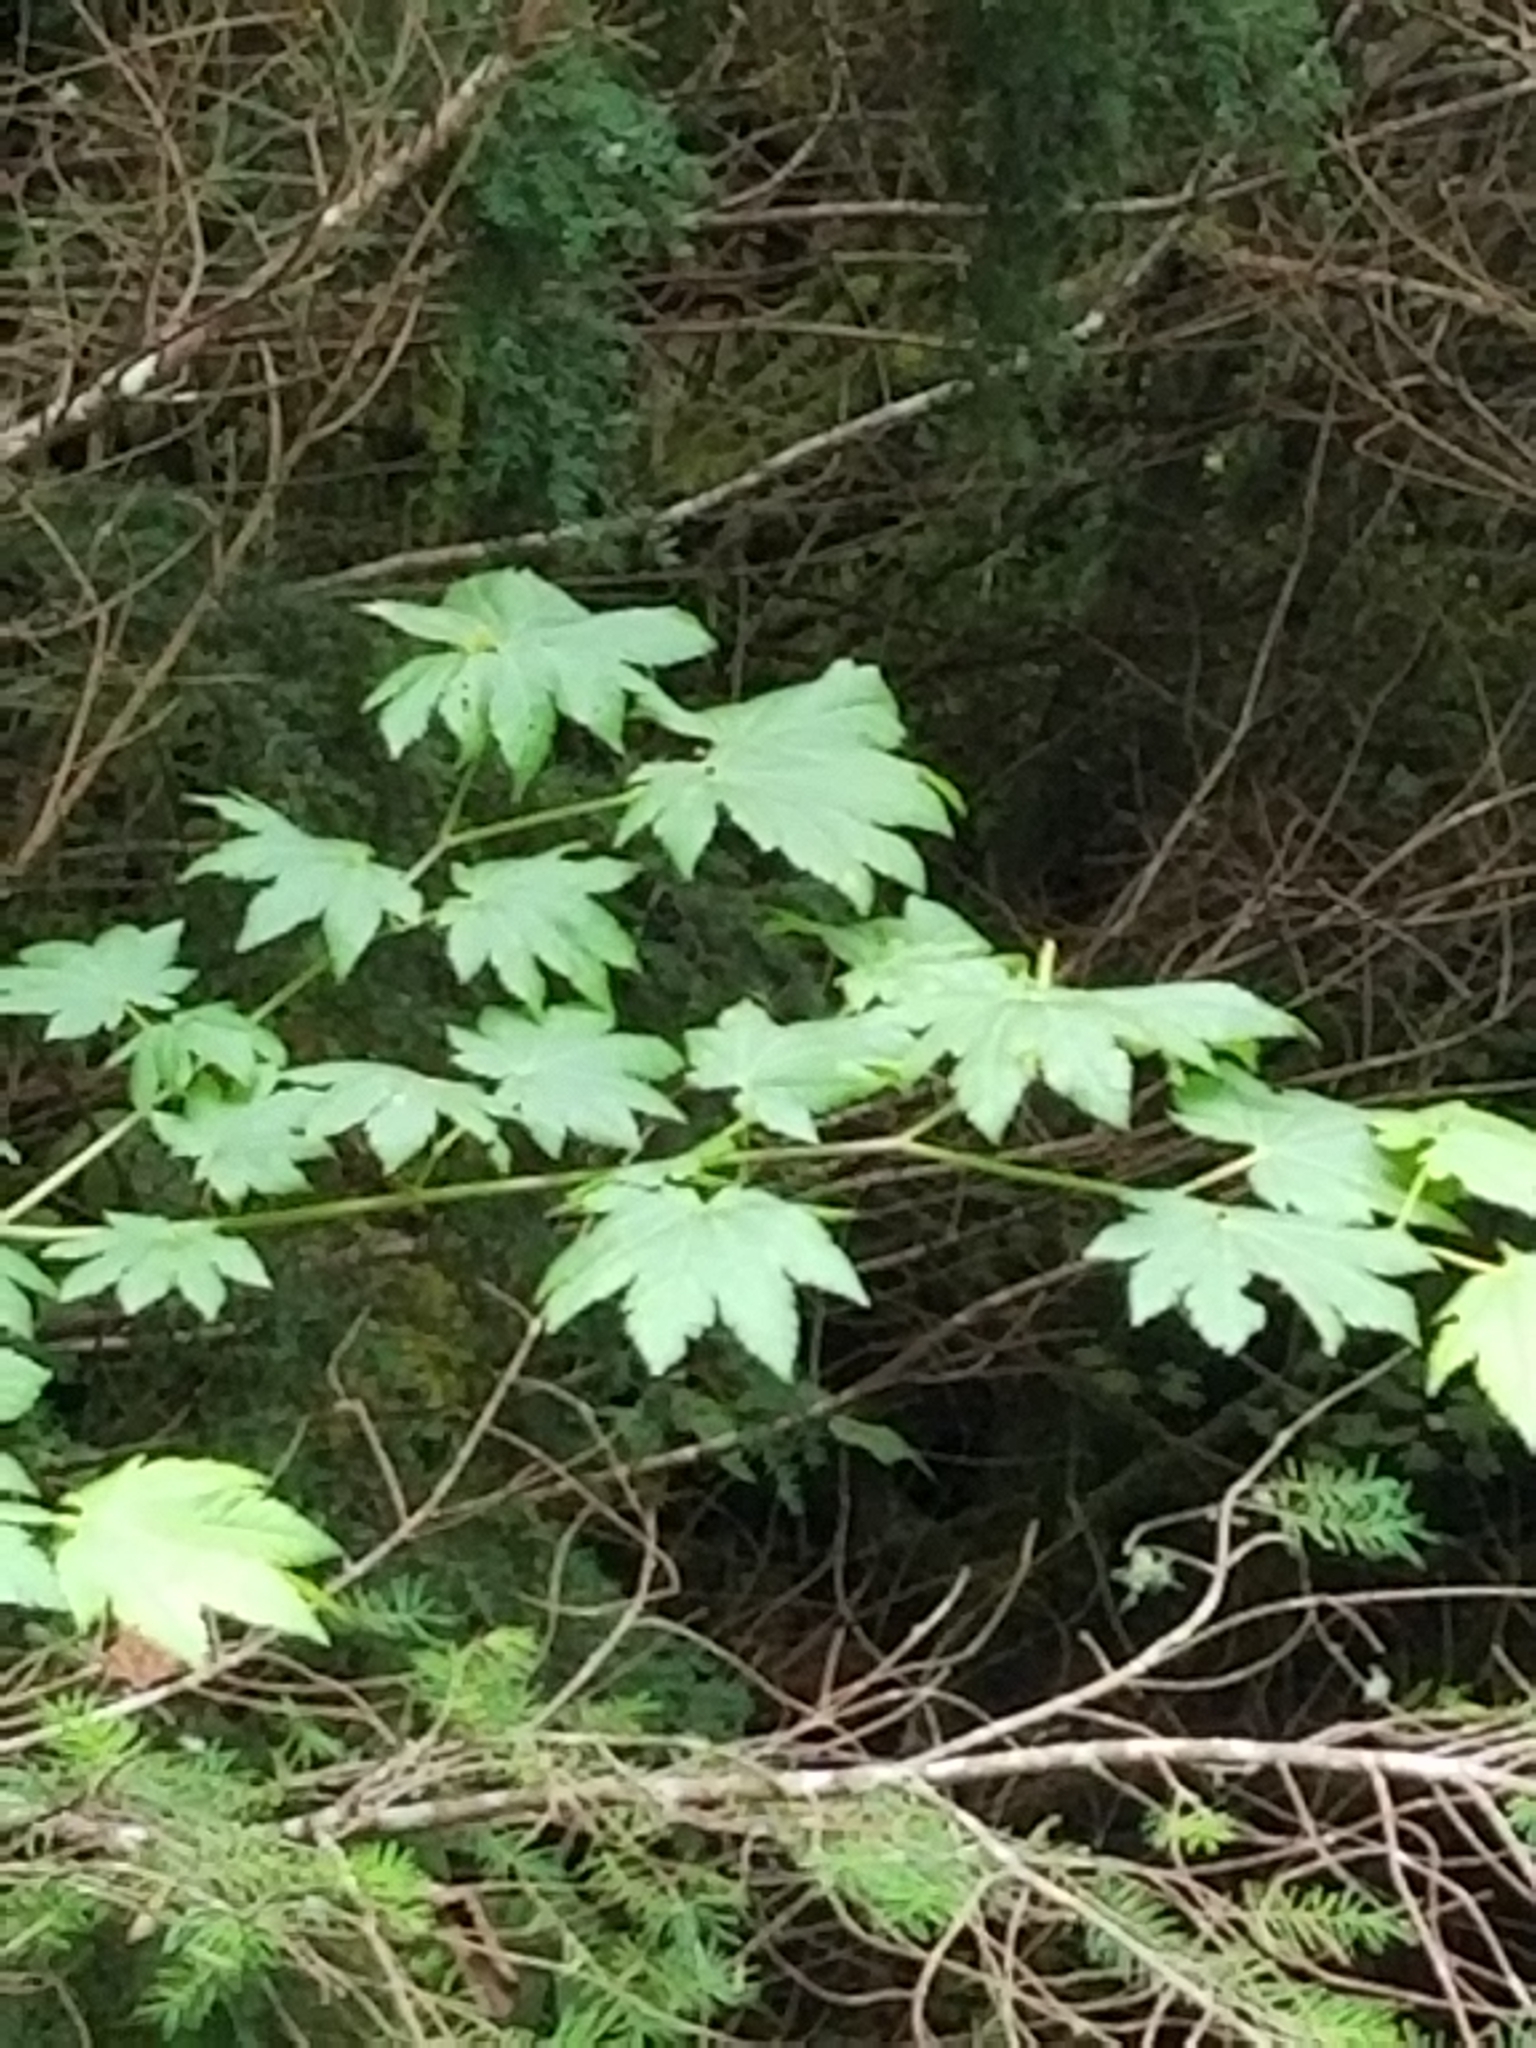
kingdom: Plantae
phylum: Tracheophyta
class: Magnoliopsida
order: Sapindales
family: Sapindaceae
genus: Acer
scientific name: Acer circinatum
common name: Vine maple
